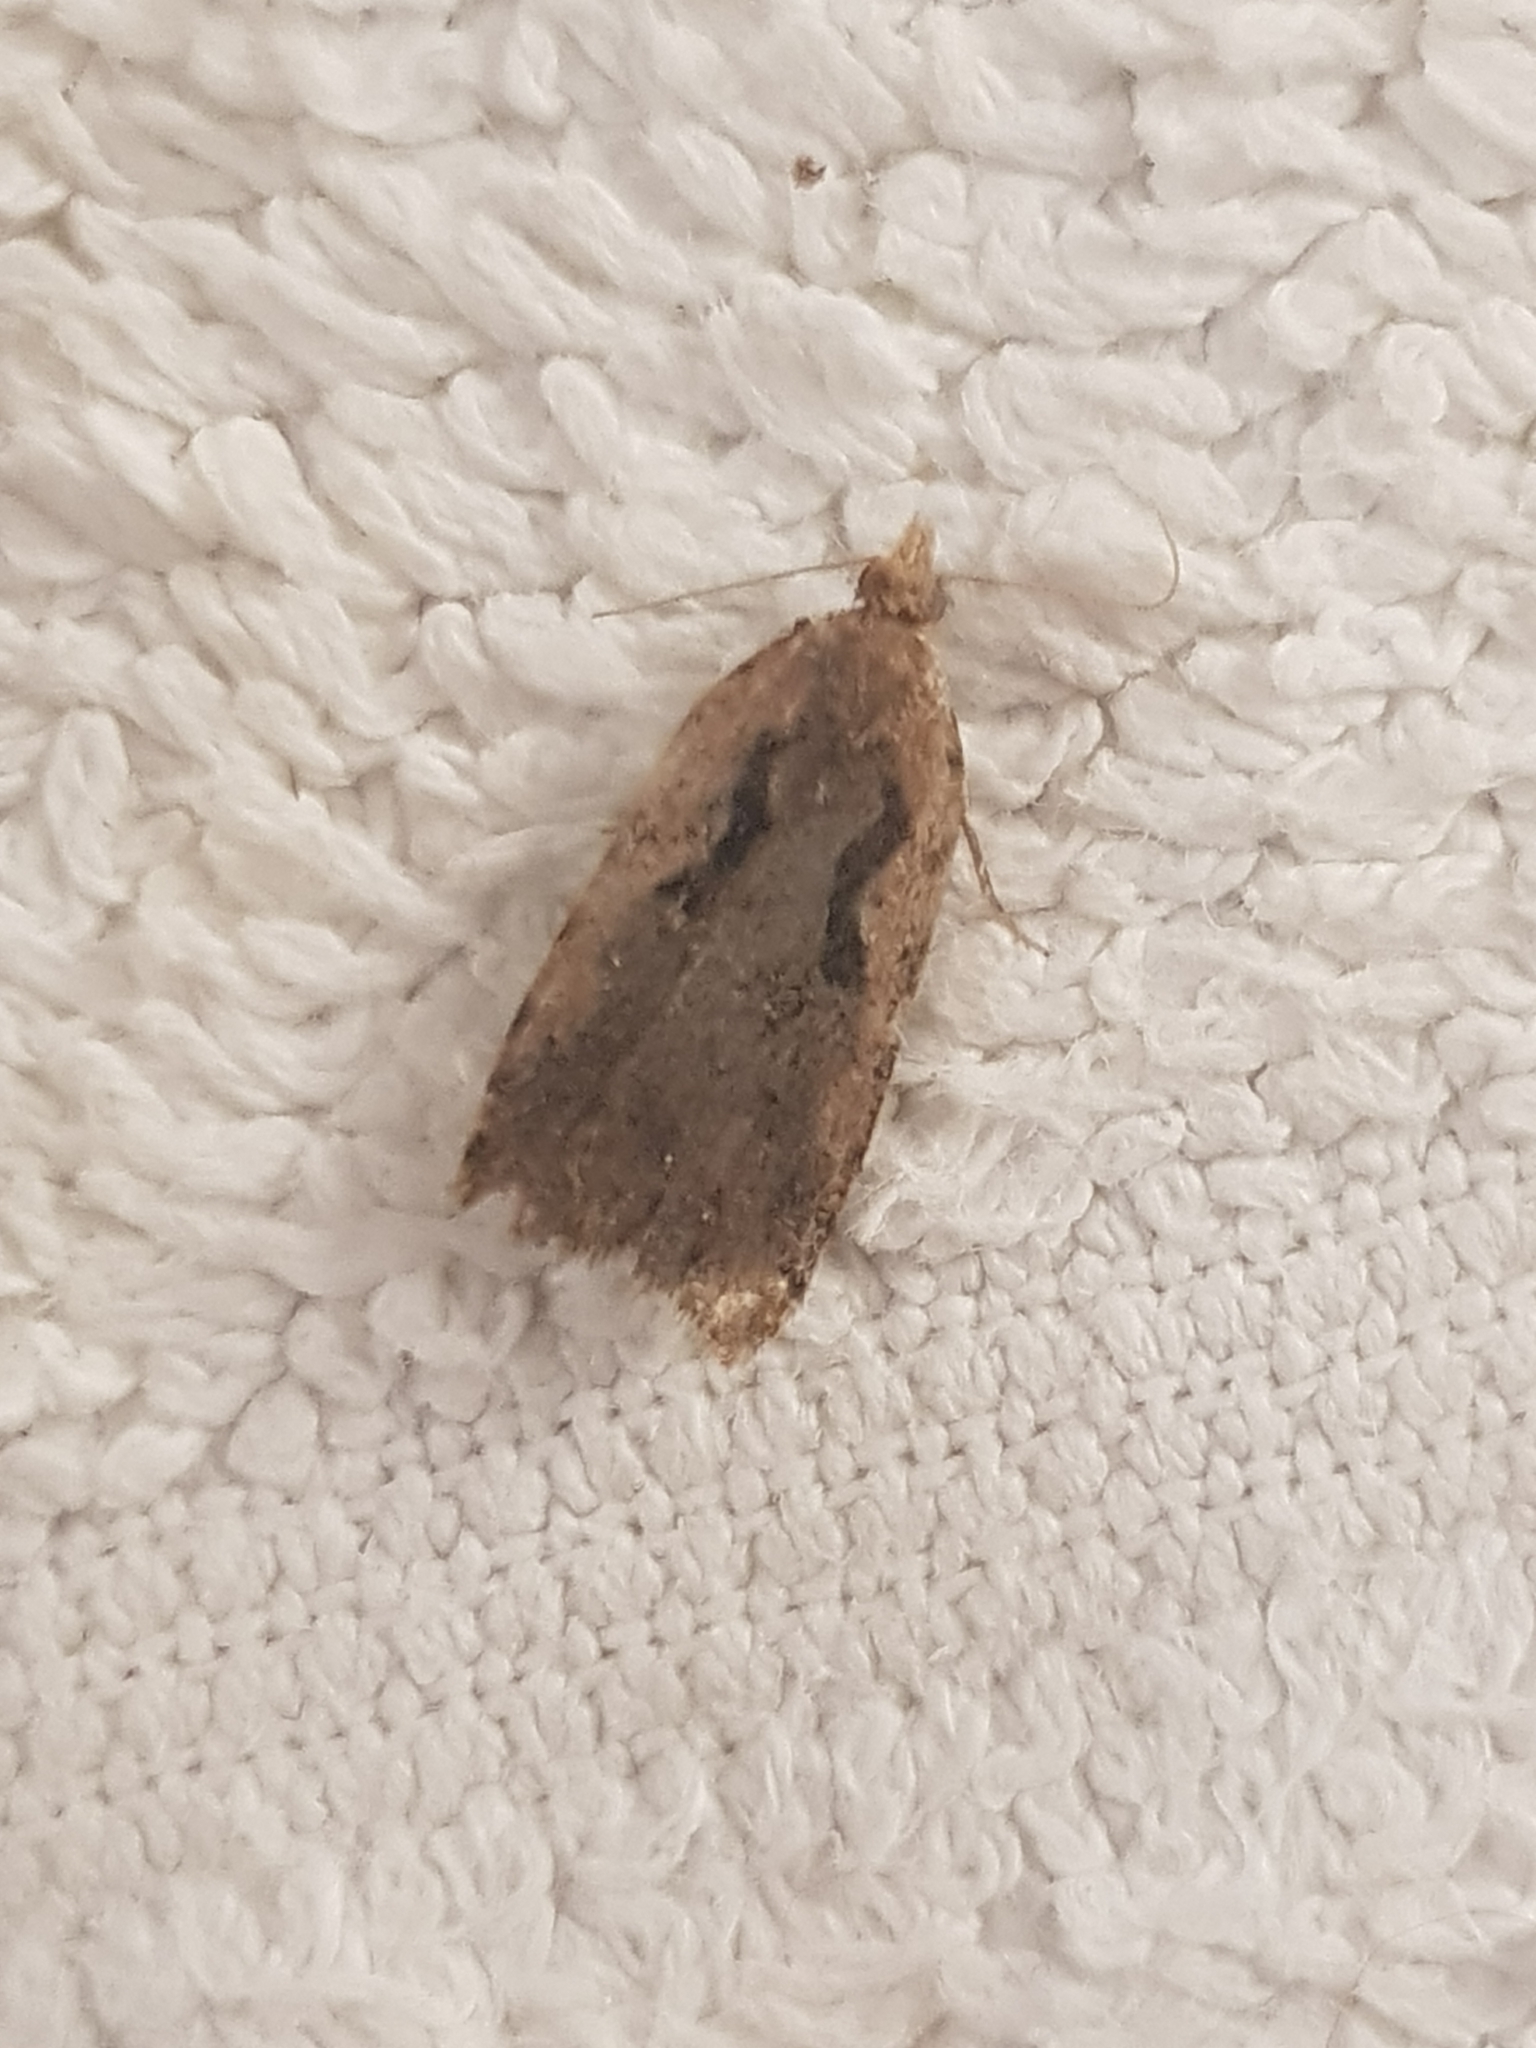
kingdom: Animalia
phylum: Arthropoda
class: Insecta
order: Lepidoptera
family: Tortricidae
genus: Cnephasia
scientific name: Cnephasia jactatana
